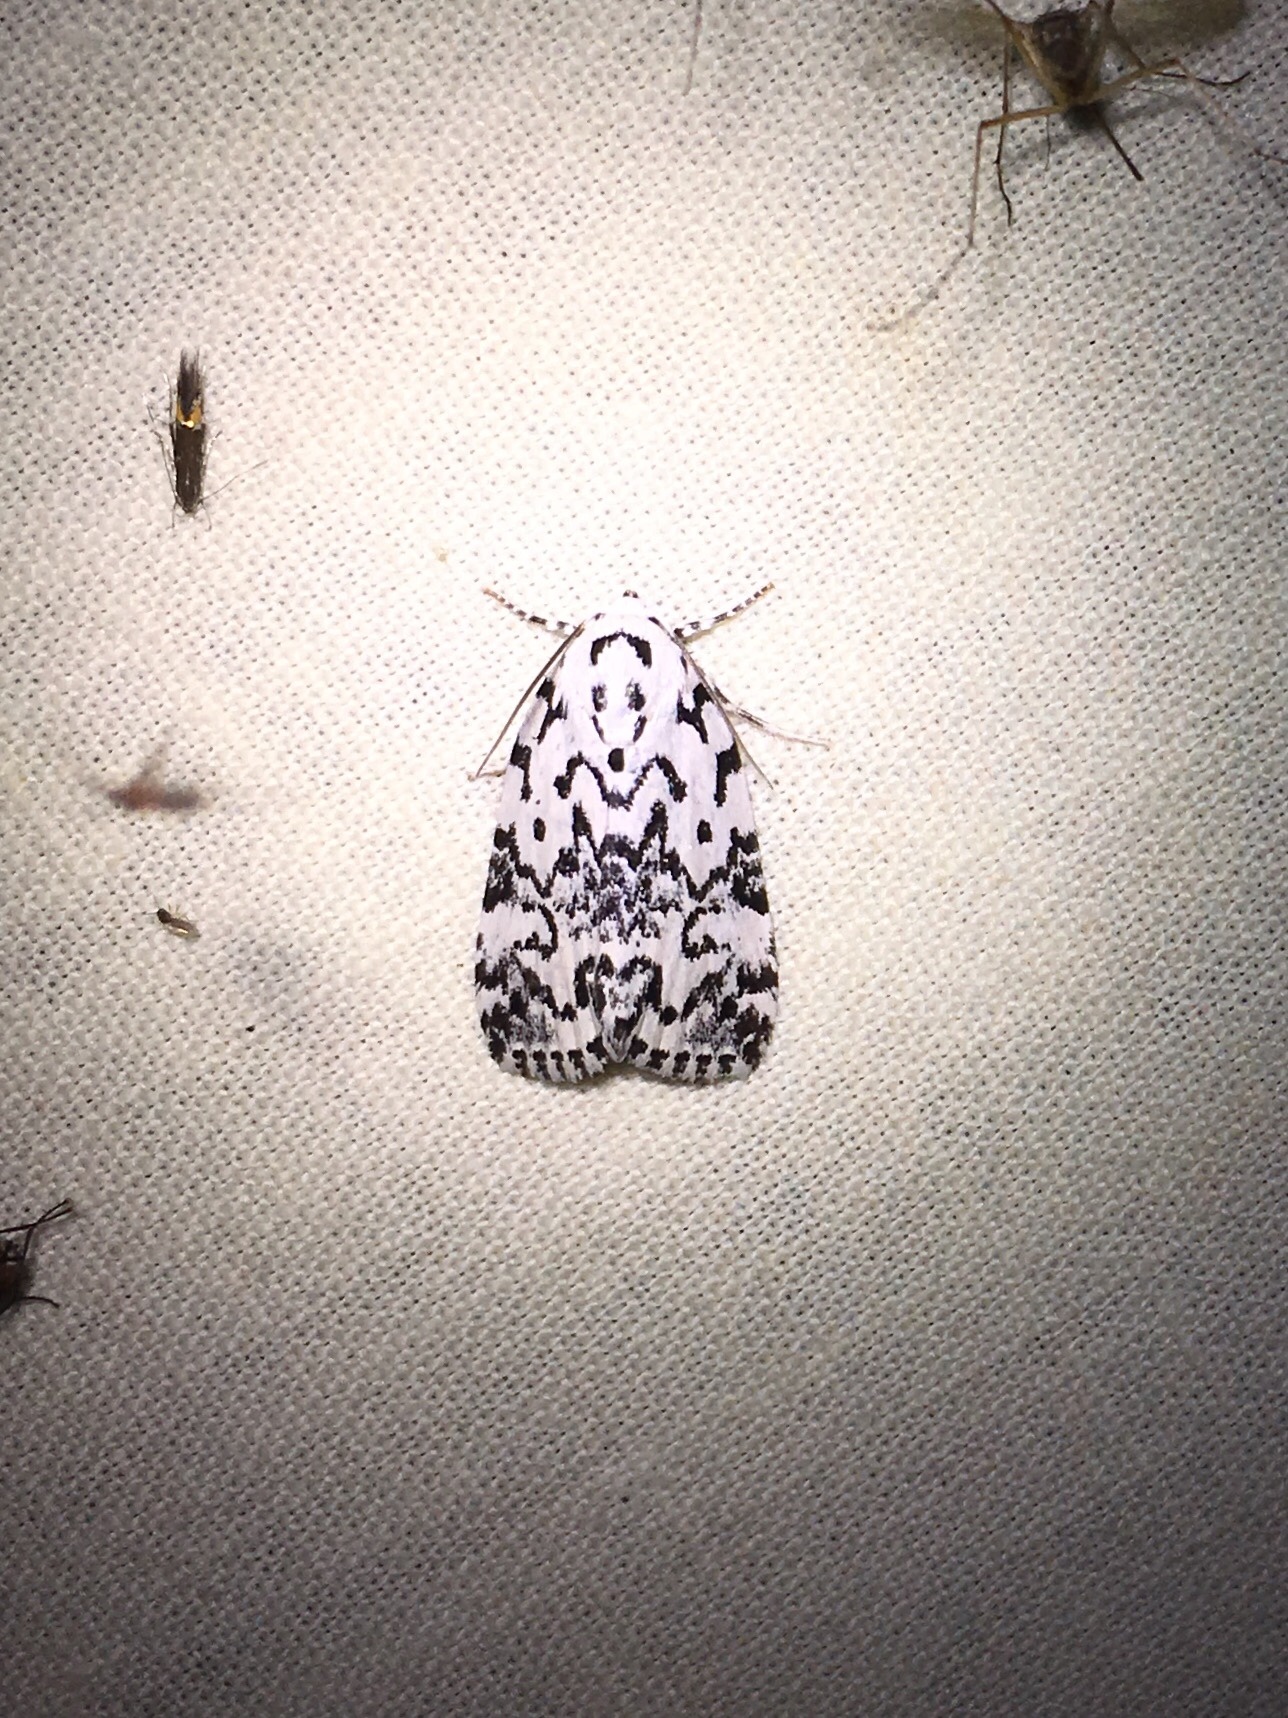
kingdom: Animalia
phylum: Arthropoda
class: Insecta
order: Lepidoptera
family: Noctuidae
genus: Polygrammate
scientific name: Polygrammate hebraeicum
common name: Hebrew moth
